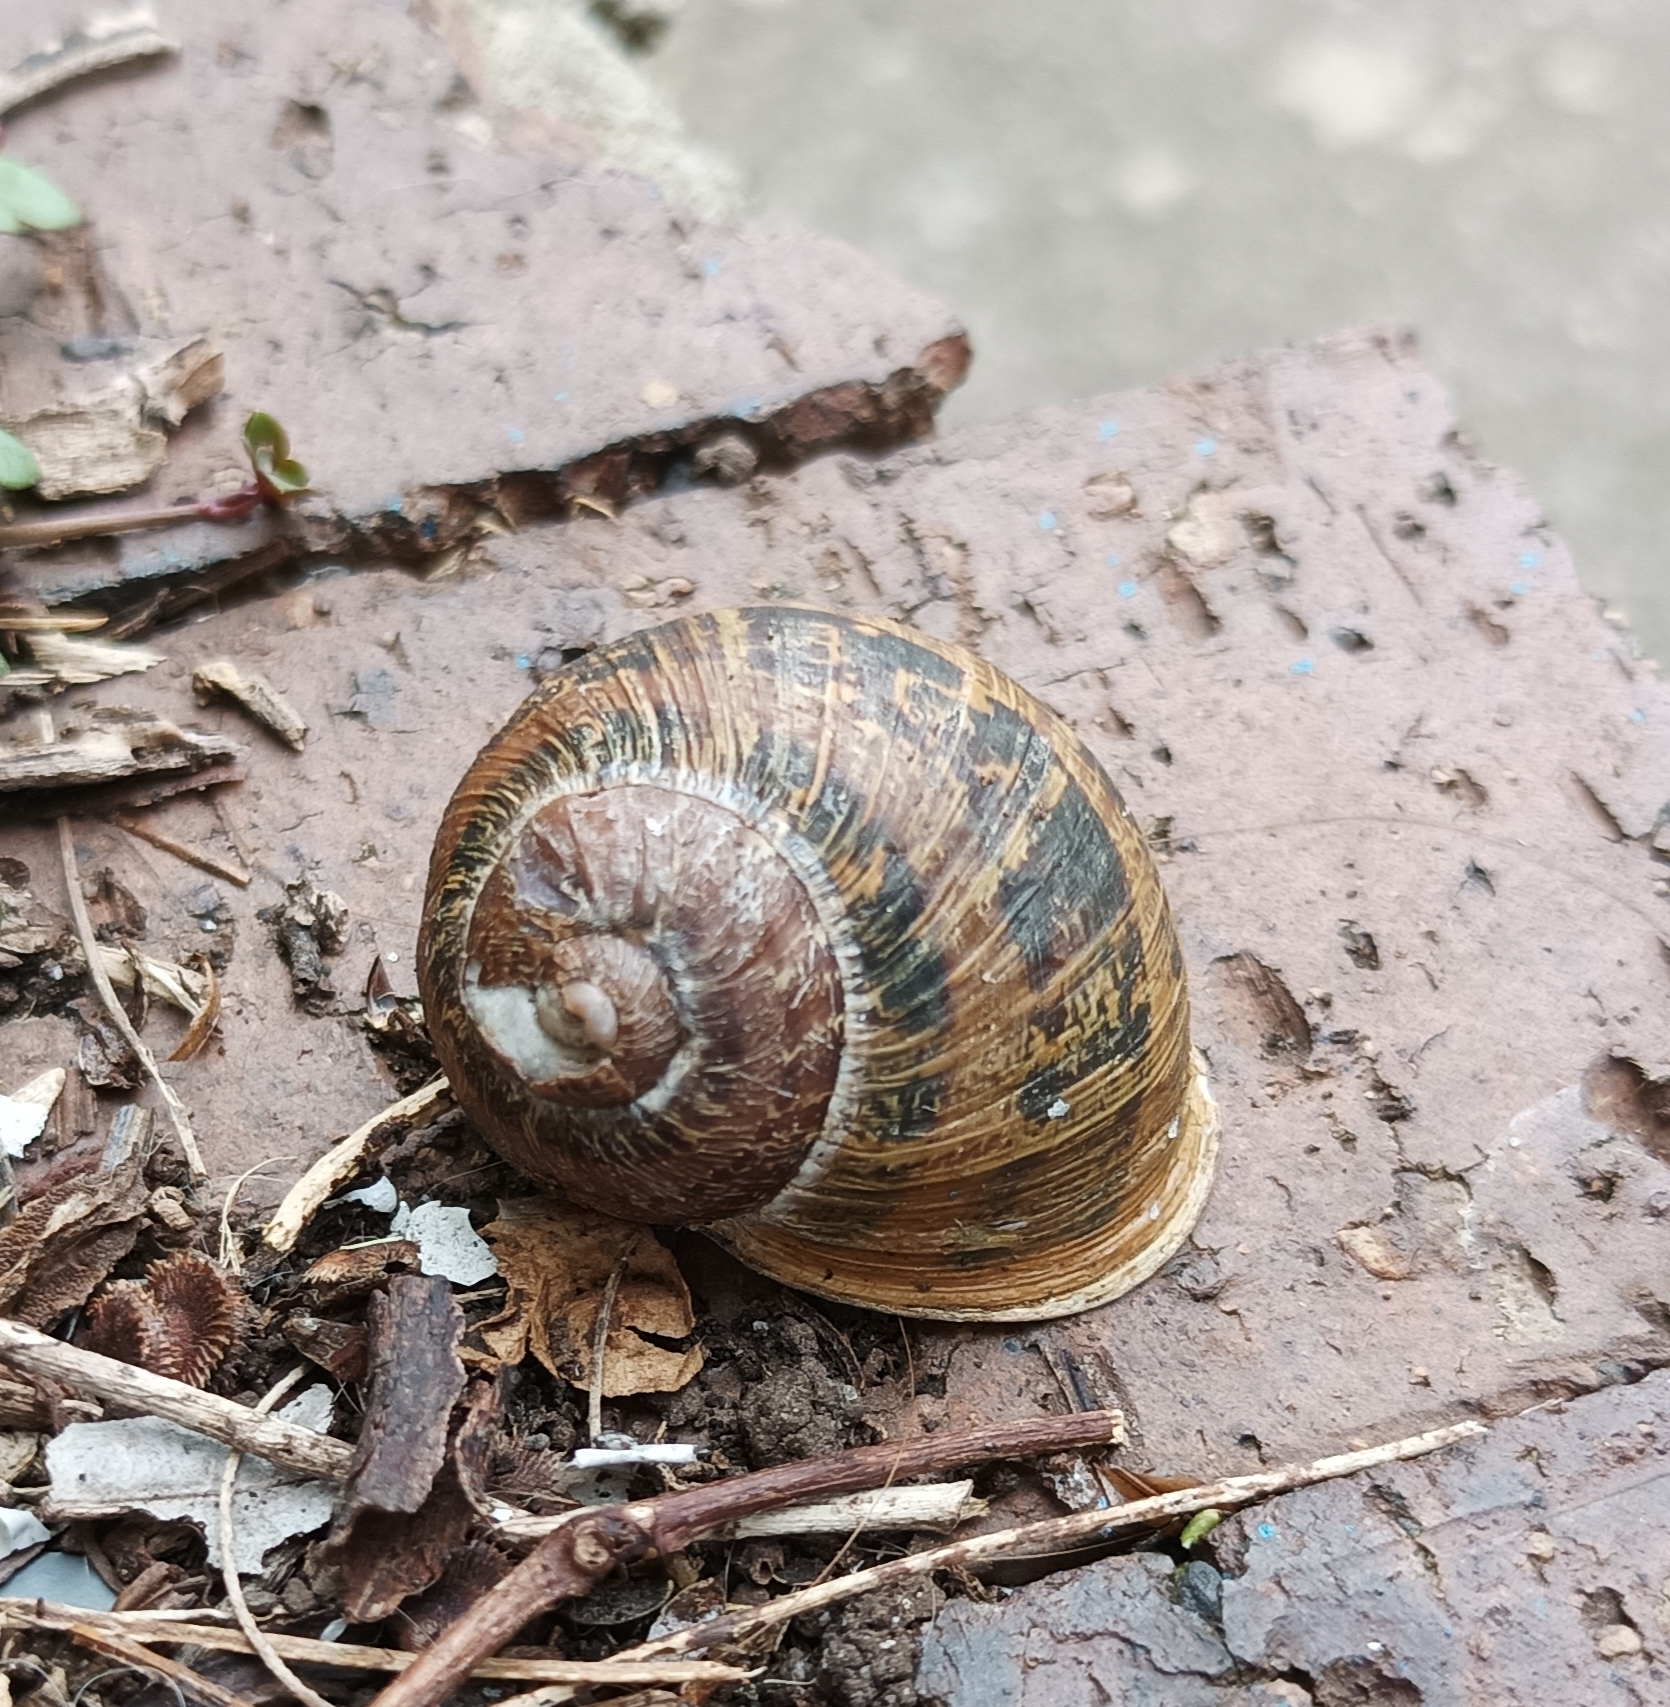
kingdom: Animalia
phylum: Mollusca
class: Gastropoda
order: Stylommatophora
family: Helicidae
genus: Cornu
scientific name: Cornu aspersum
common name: Brown garden snail
